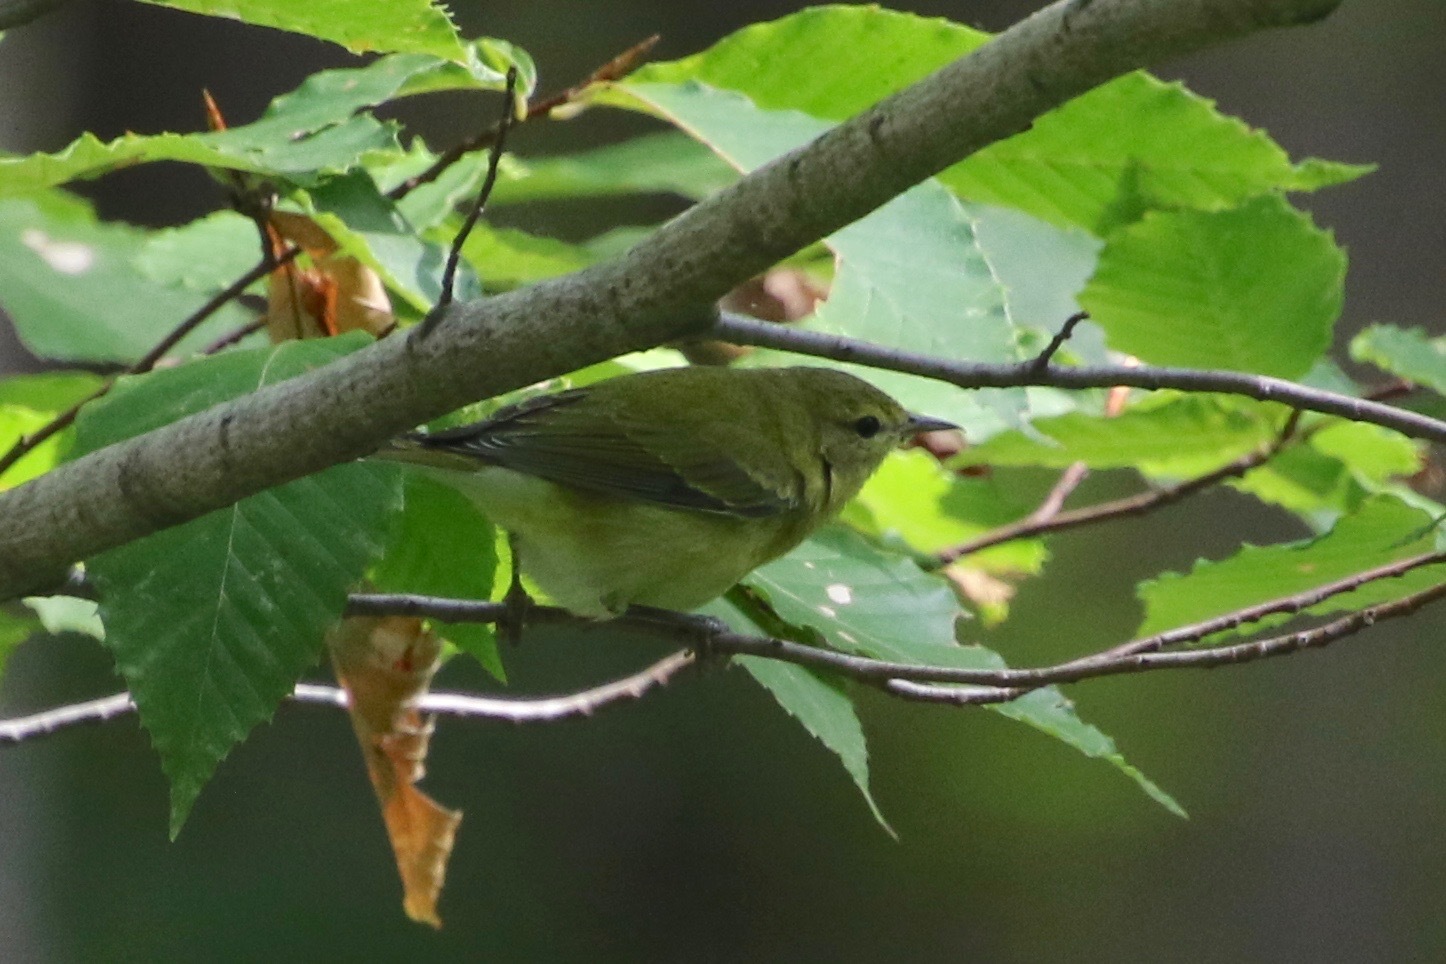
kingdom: Animalia
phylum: Chordata
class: Aves
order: Passeriformes
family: Parulidae
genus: Leiothlypis
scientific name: Leiothlypis peregrina
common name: Tennessee warbler
